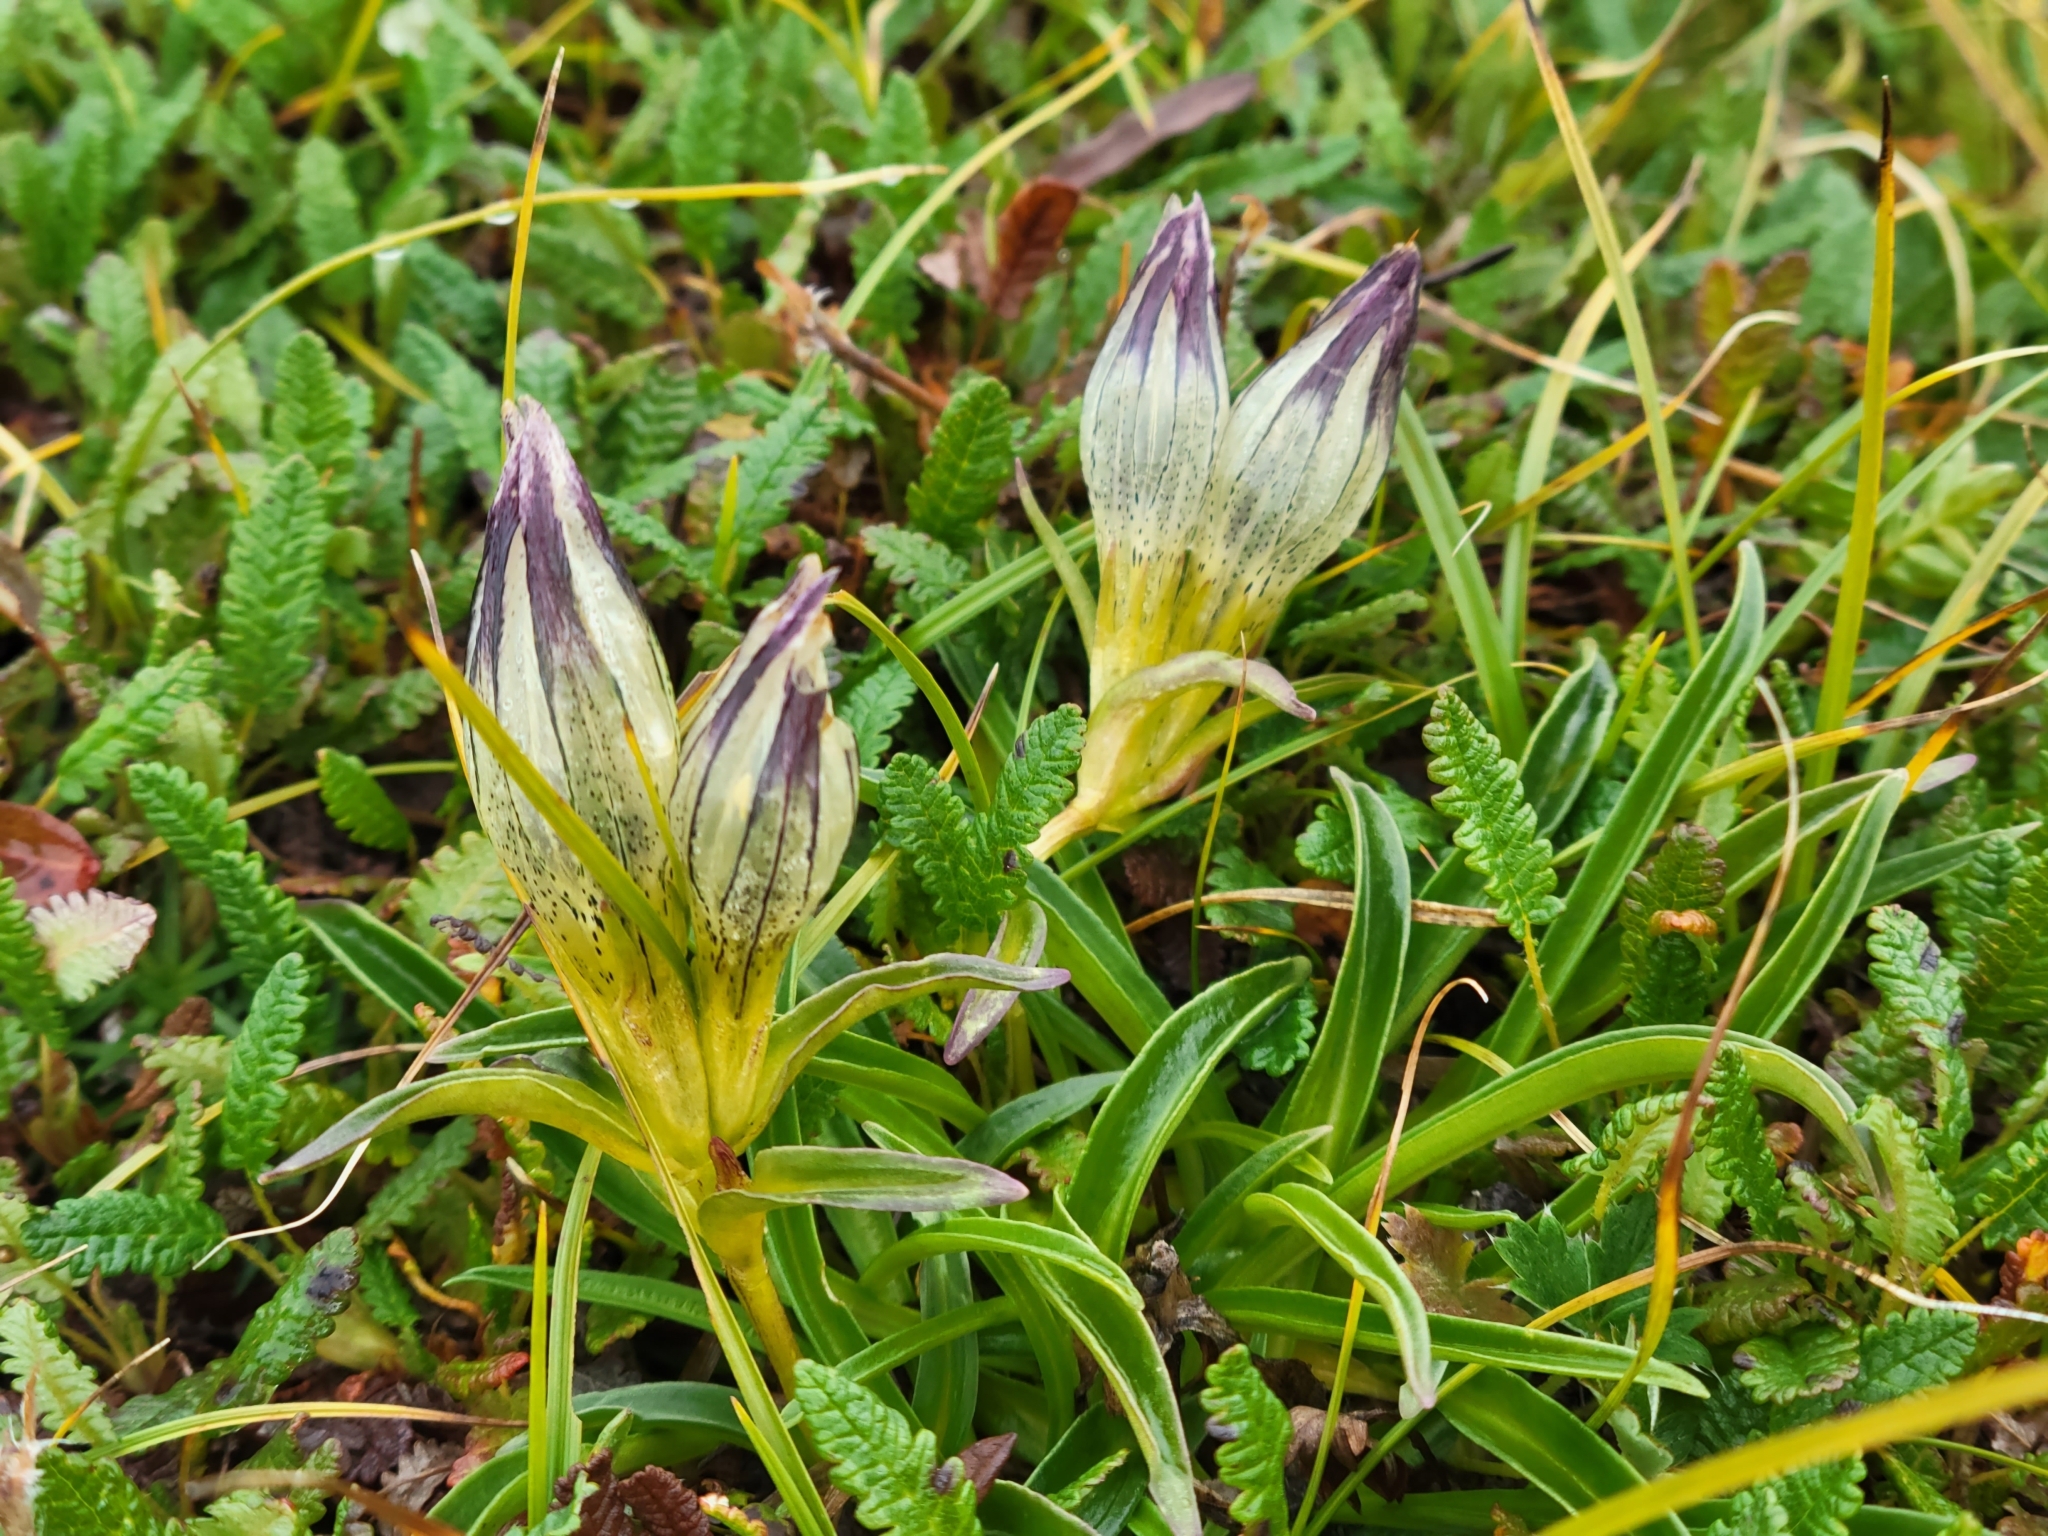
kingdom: Plantae
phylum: Tracheophyta
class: Magnoliopsida
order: Gentianales
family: Gentianaceae
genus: Gentiana
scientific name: Gentiana algida
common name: Arctic gentian
